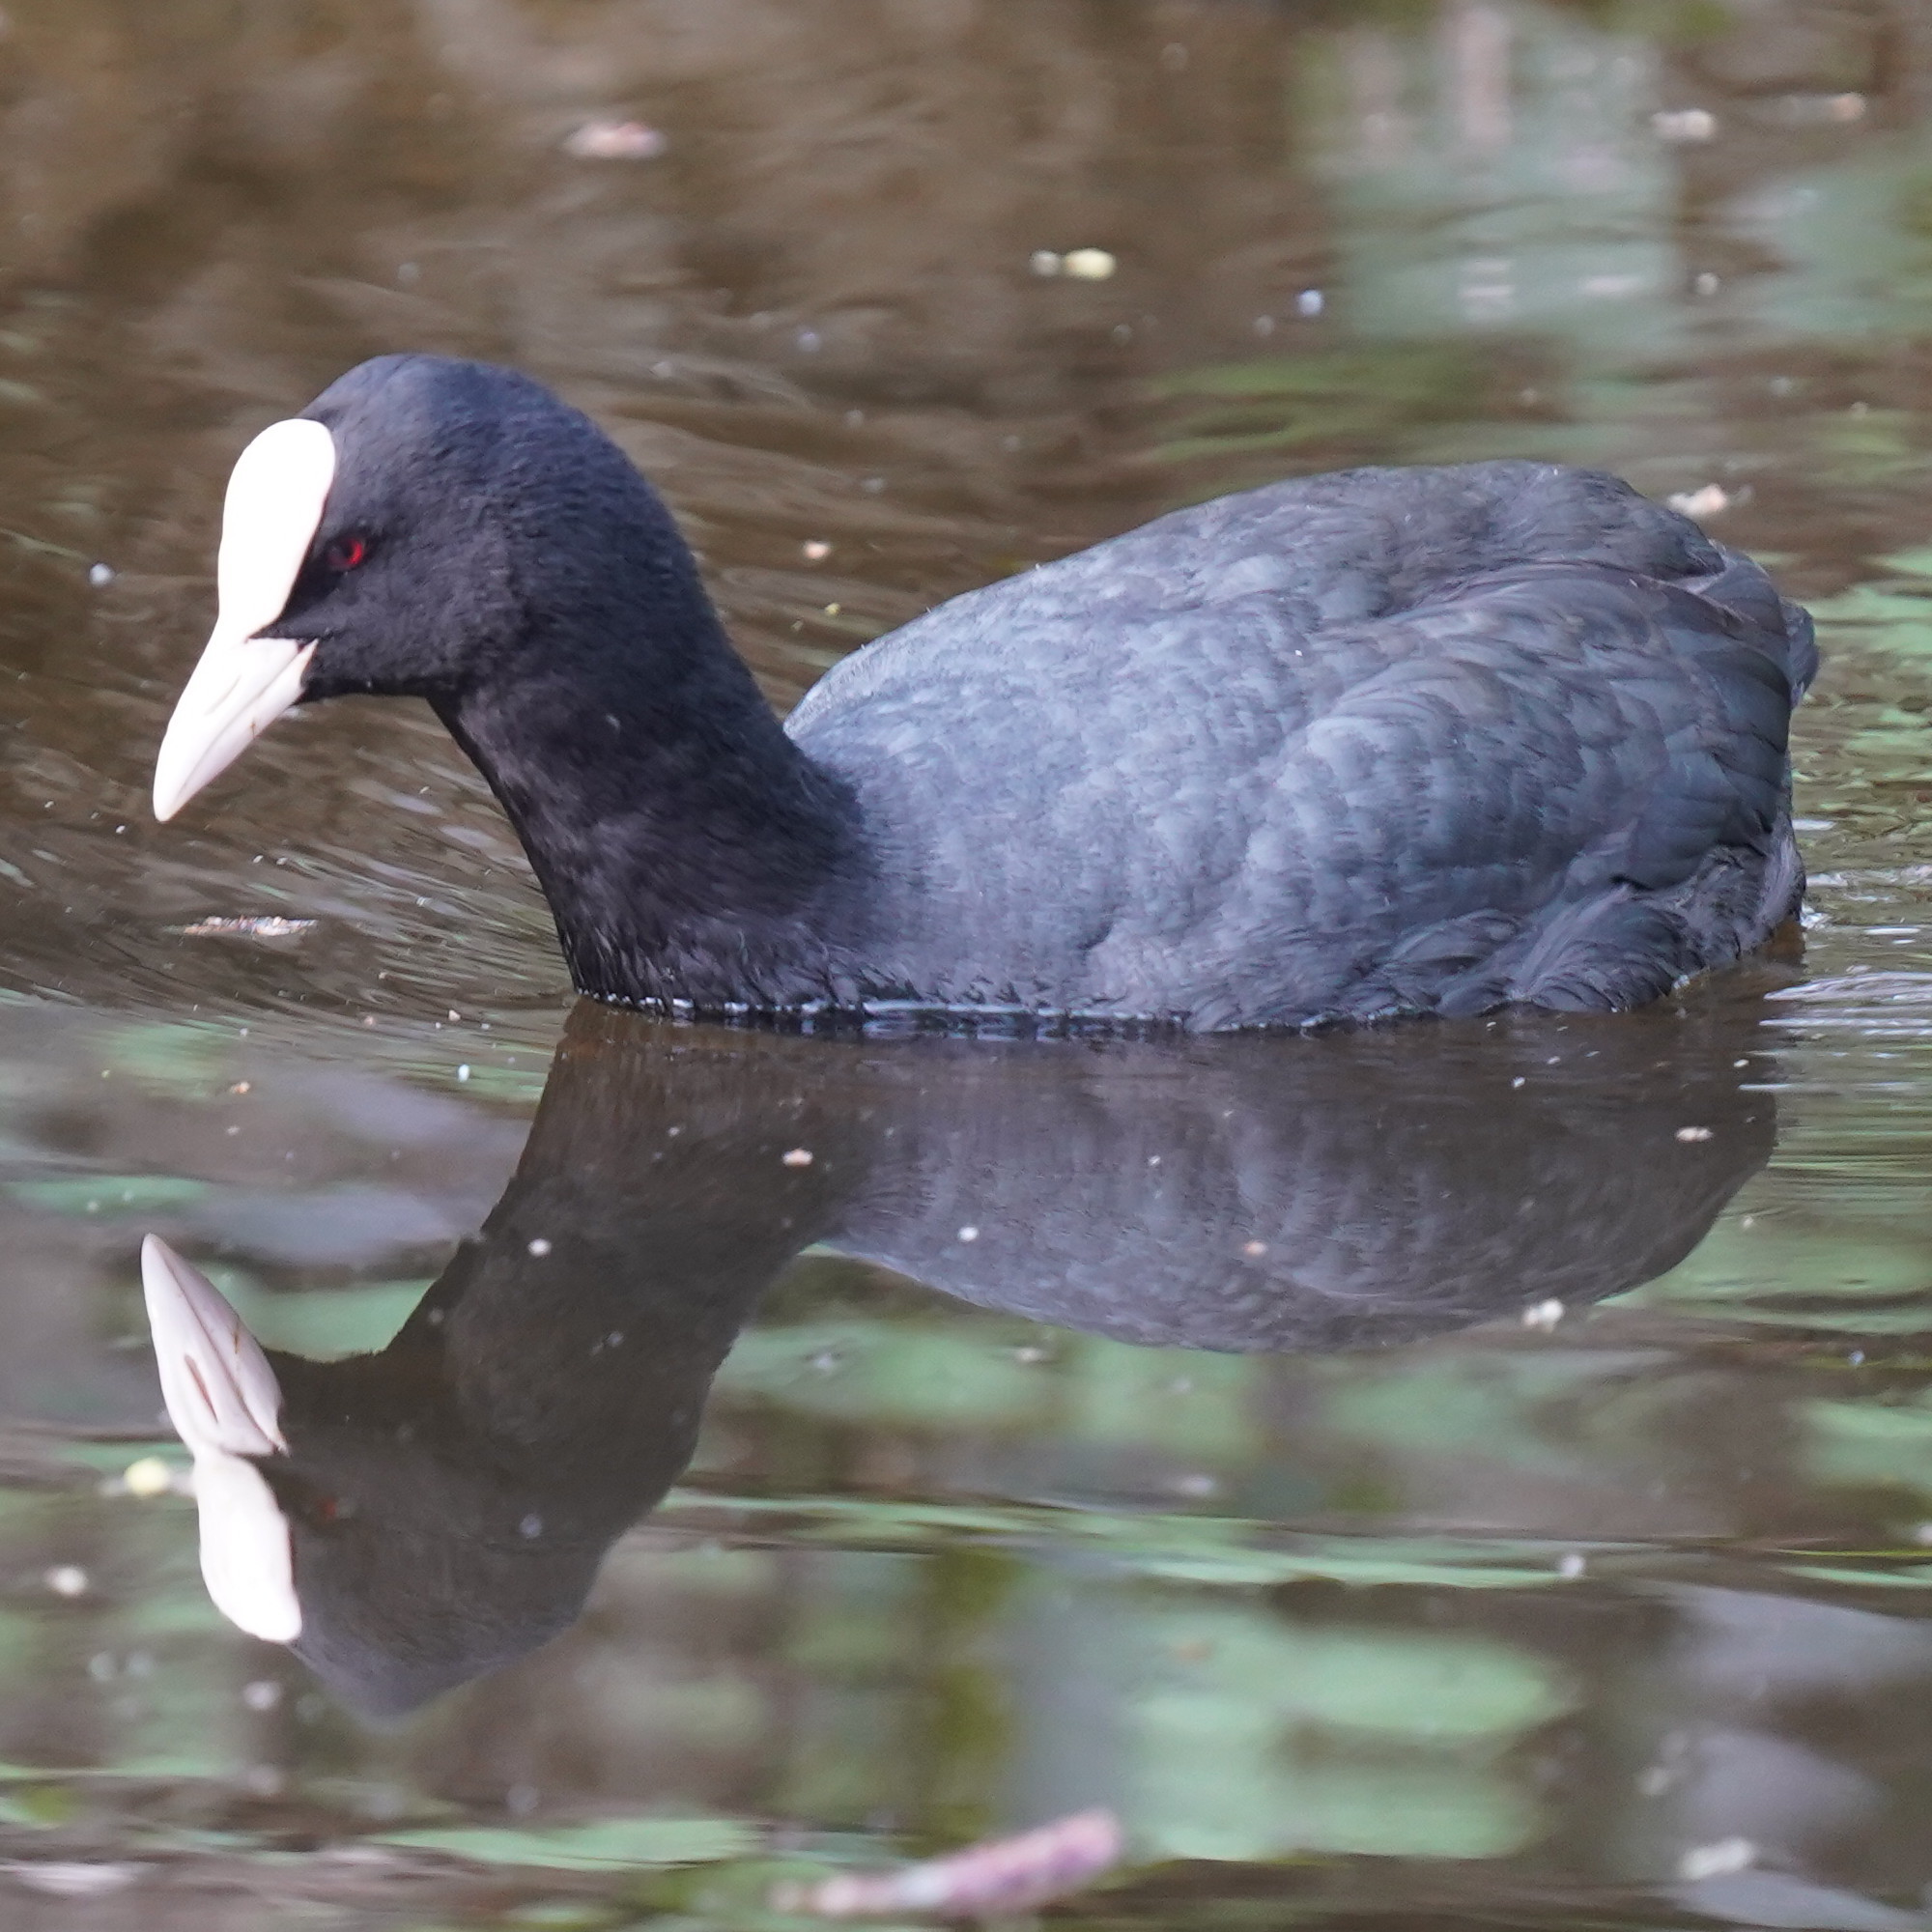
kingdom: Animalia
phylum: Chordata
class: Aves
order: Gruiformes
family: Rallidae
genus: Fulica
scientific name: Fulica atra
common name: Eurasian coot
